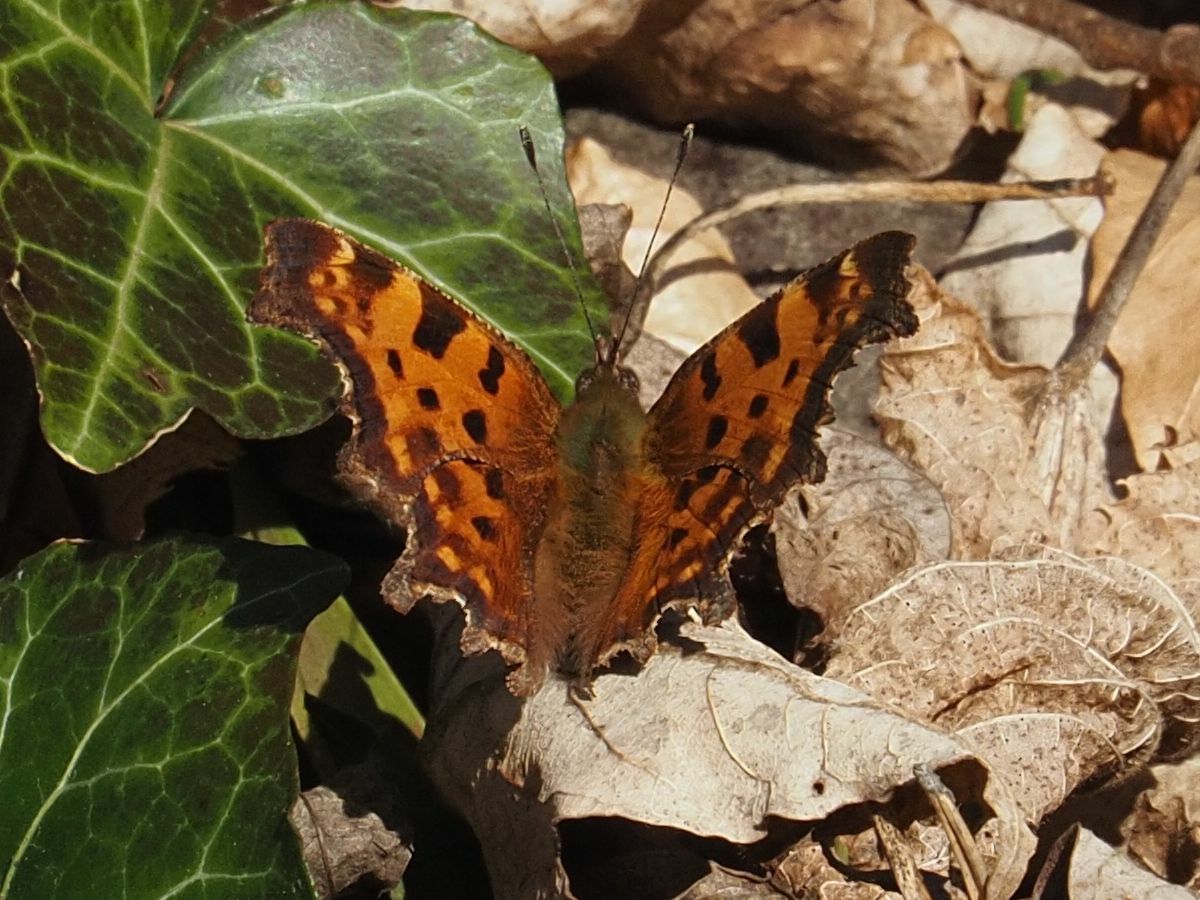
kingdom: Animalia
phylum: Arthropoda
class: Insecta
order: Lepidoptera
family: Nymphalidae
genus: Polygonia
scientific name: Polygonia c-album
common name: Comma
